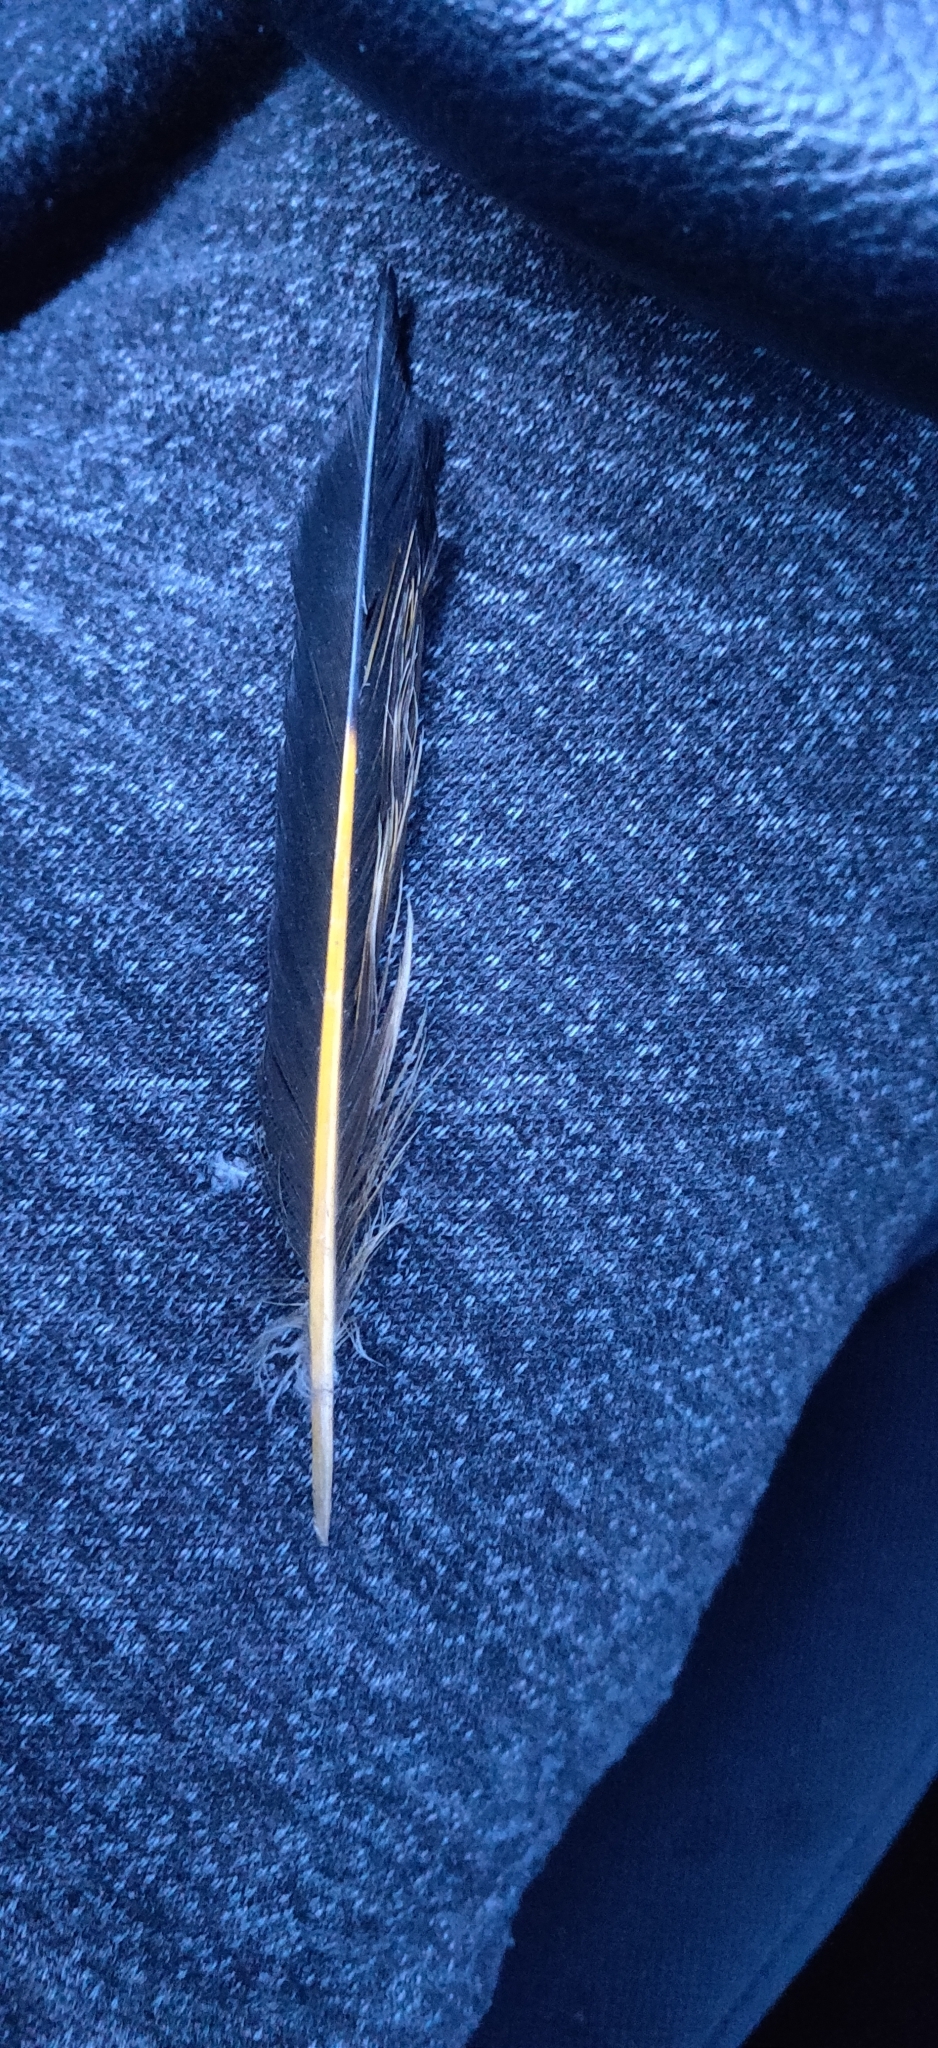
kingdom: Animalia
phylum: Chordata
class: Aves
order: Piciformes
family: Picidae
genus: Colaptes
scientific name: Colaptes auratus
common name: Northern flicker
